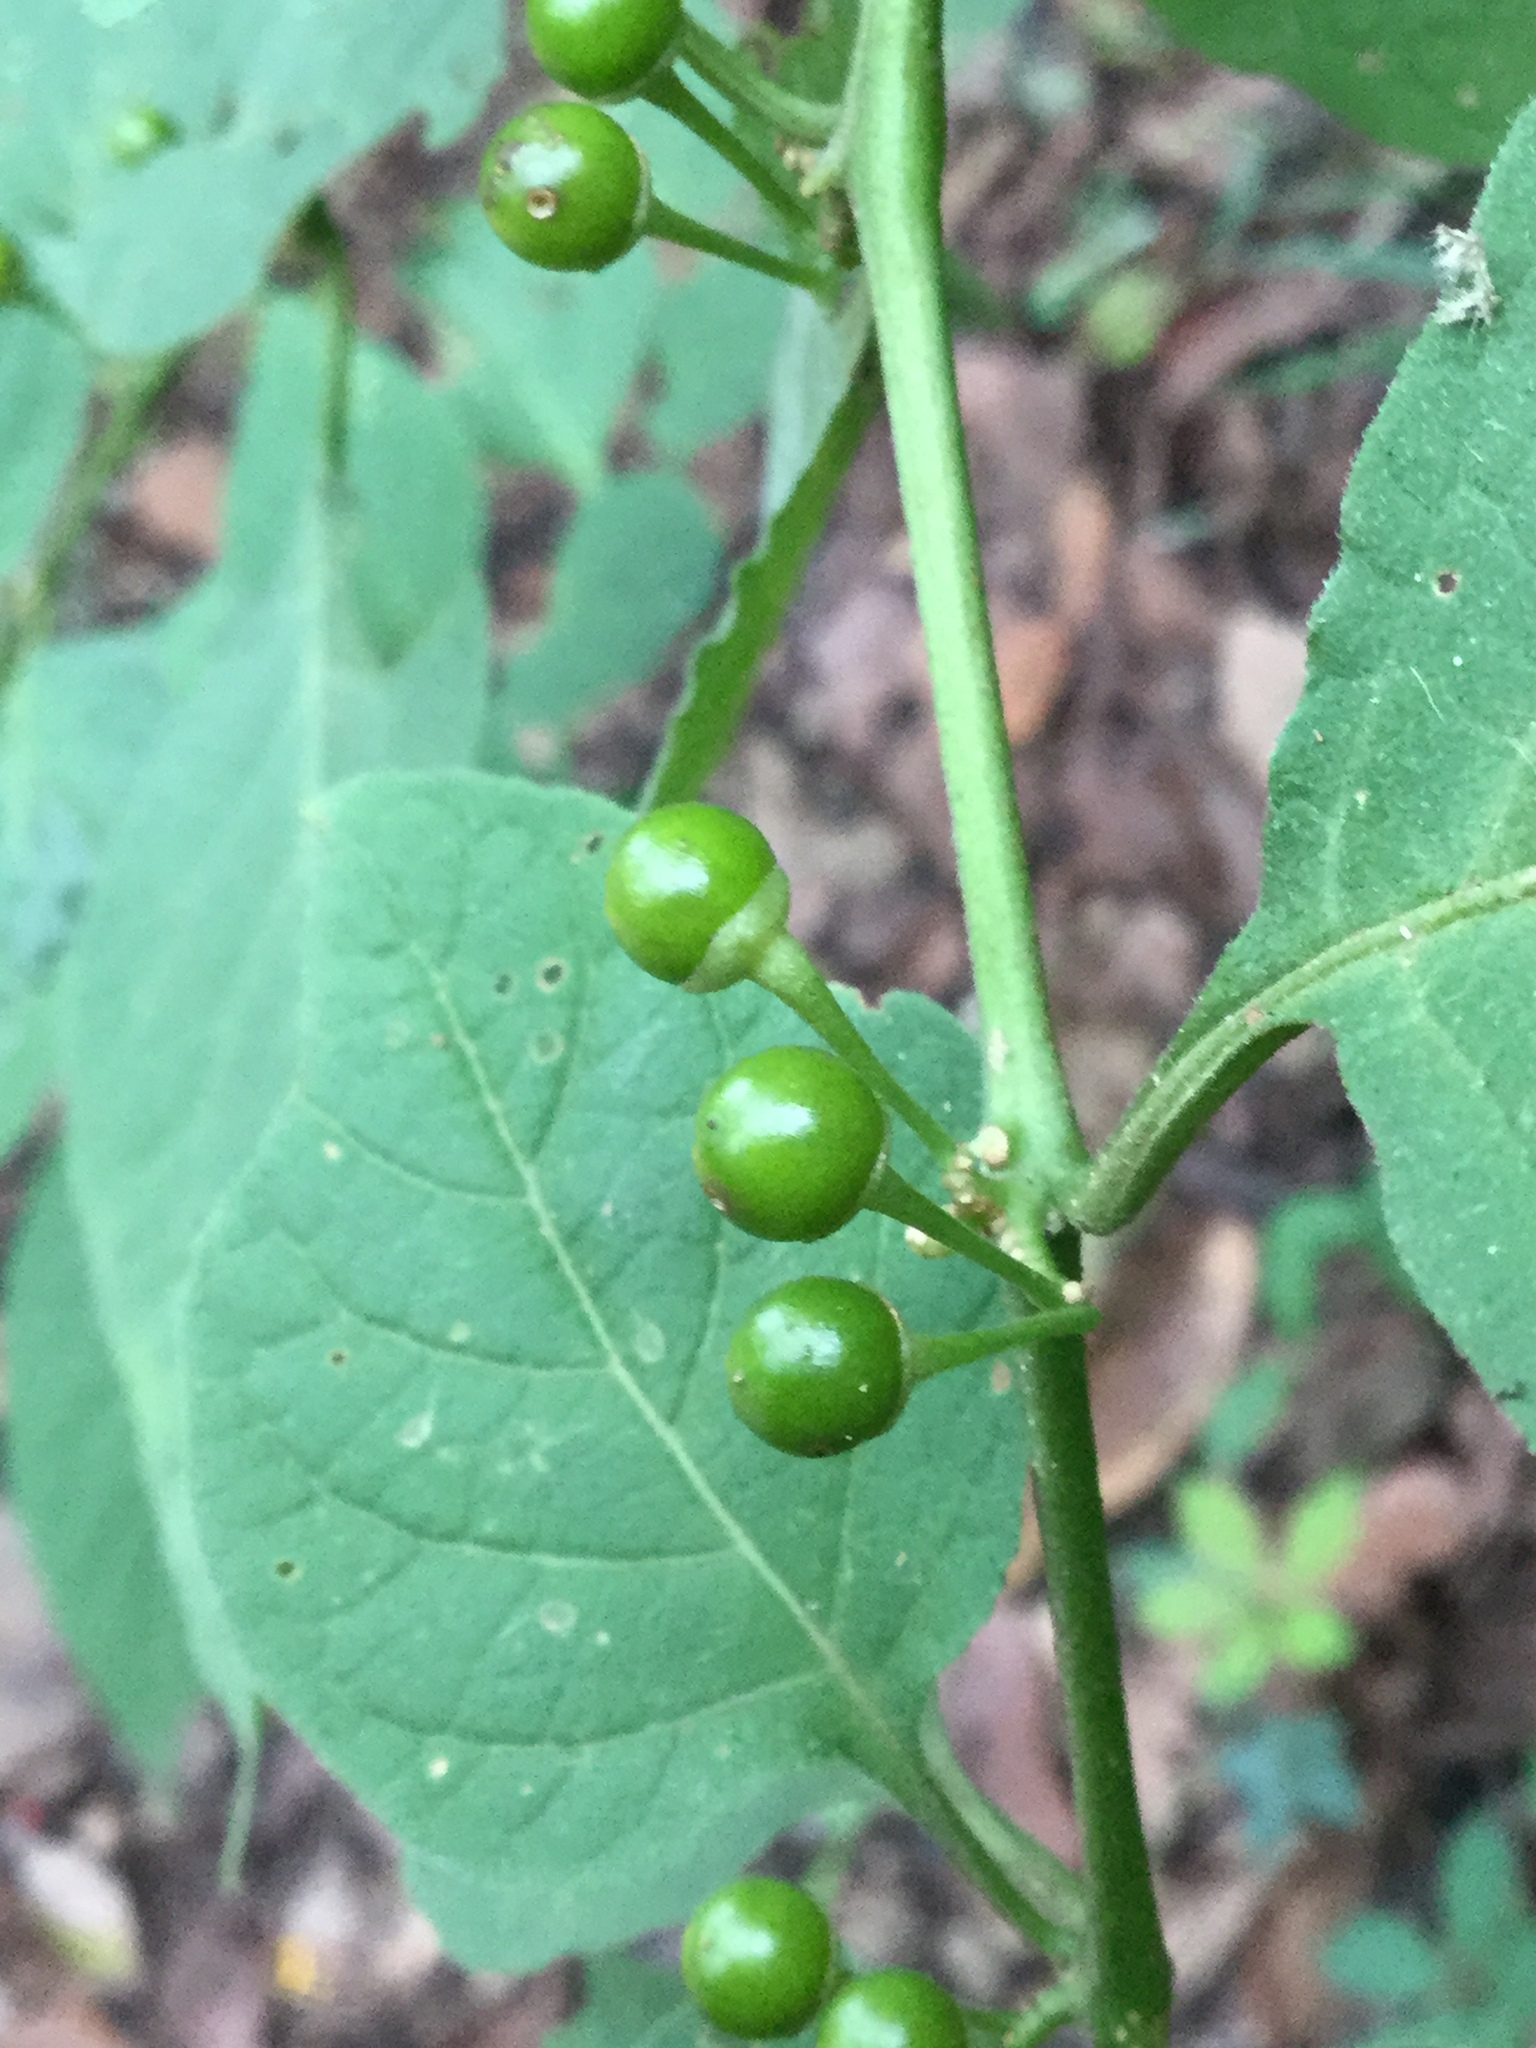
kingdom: Plantae
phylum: Tracheophyta
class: Magnoliopsida
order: Solanales
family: Solanaceae
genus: Witheringia
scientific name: Witheringia mexicana
